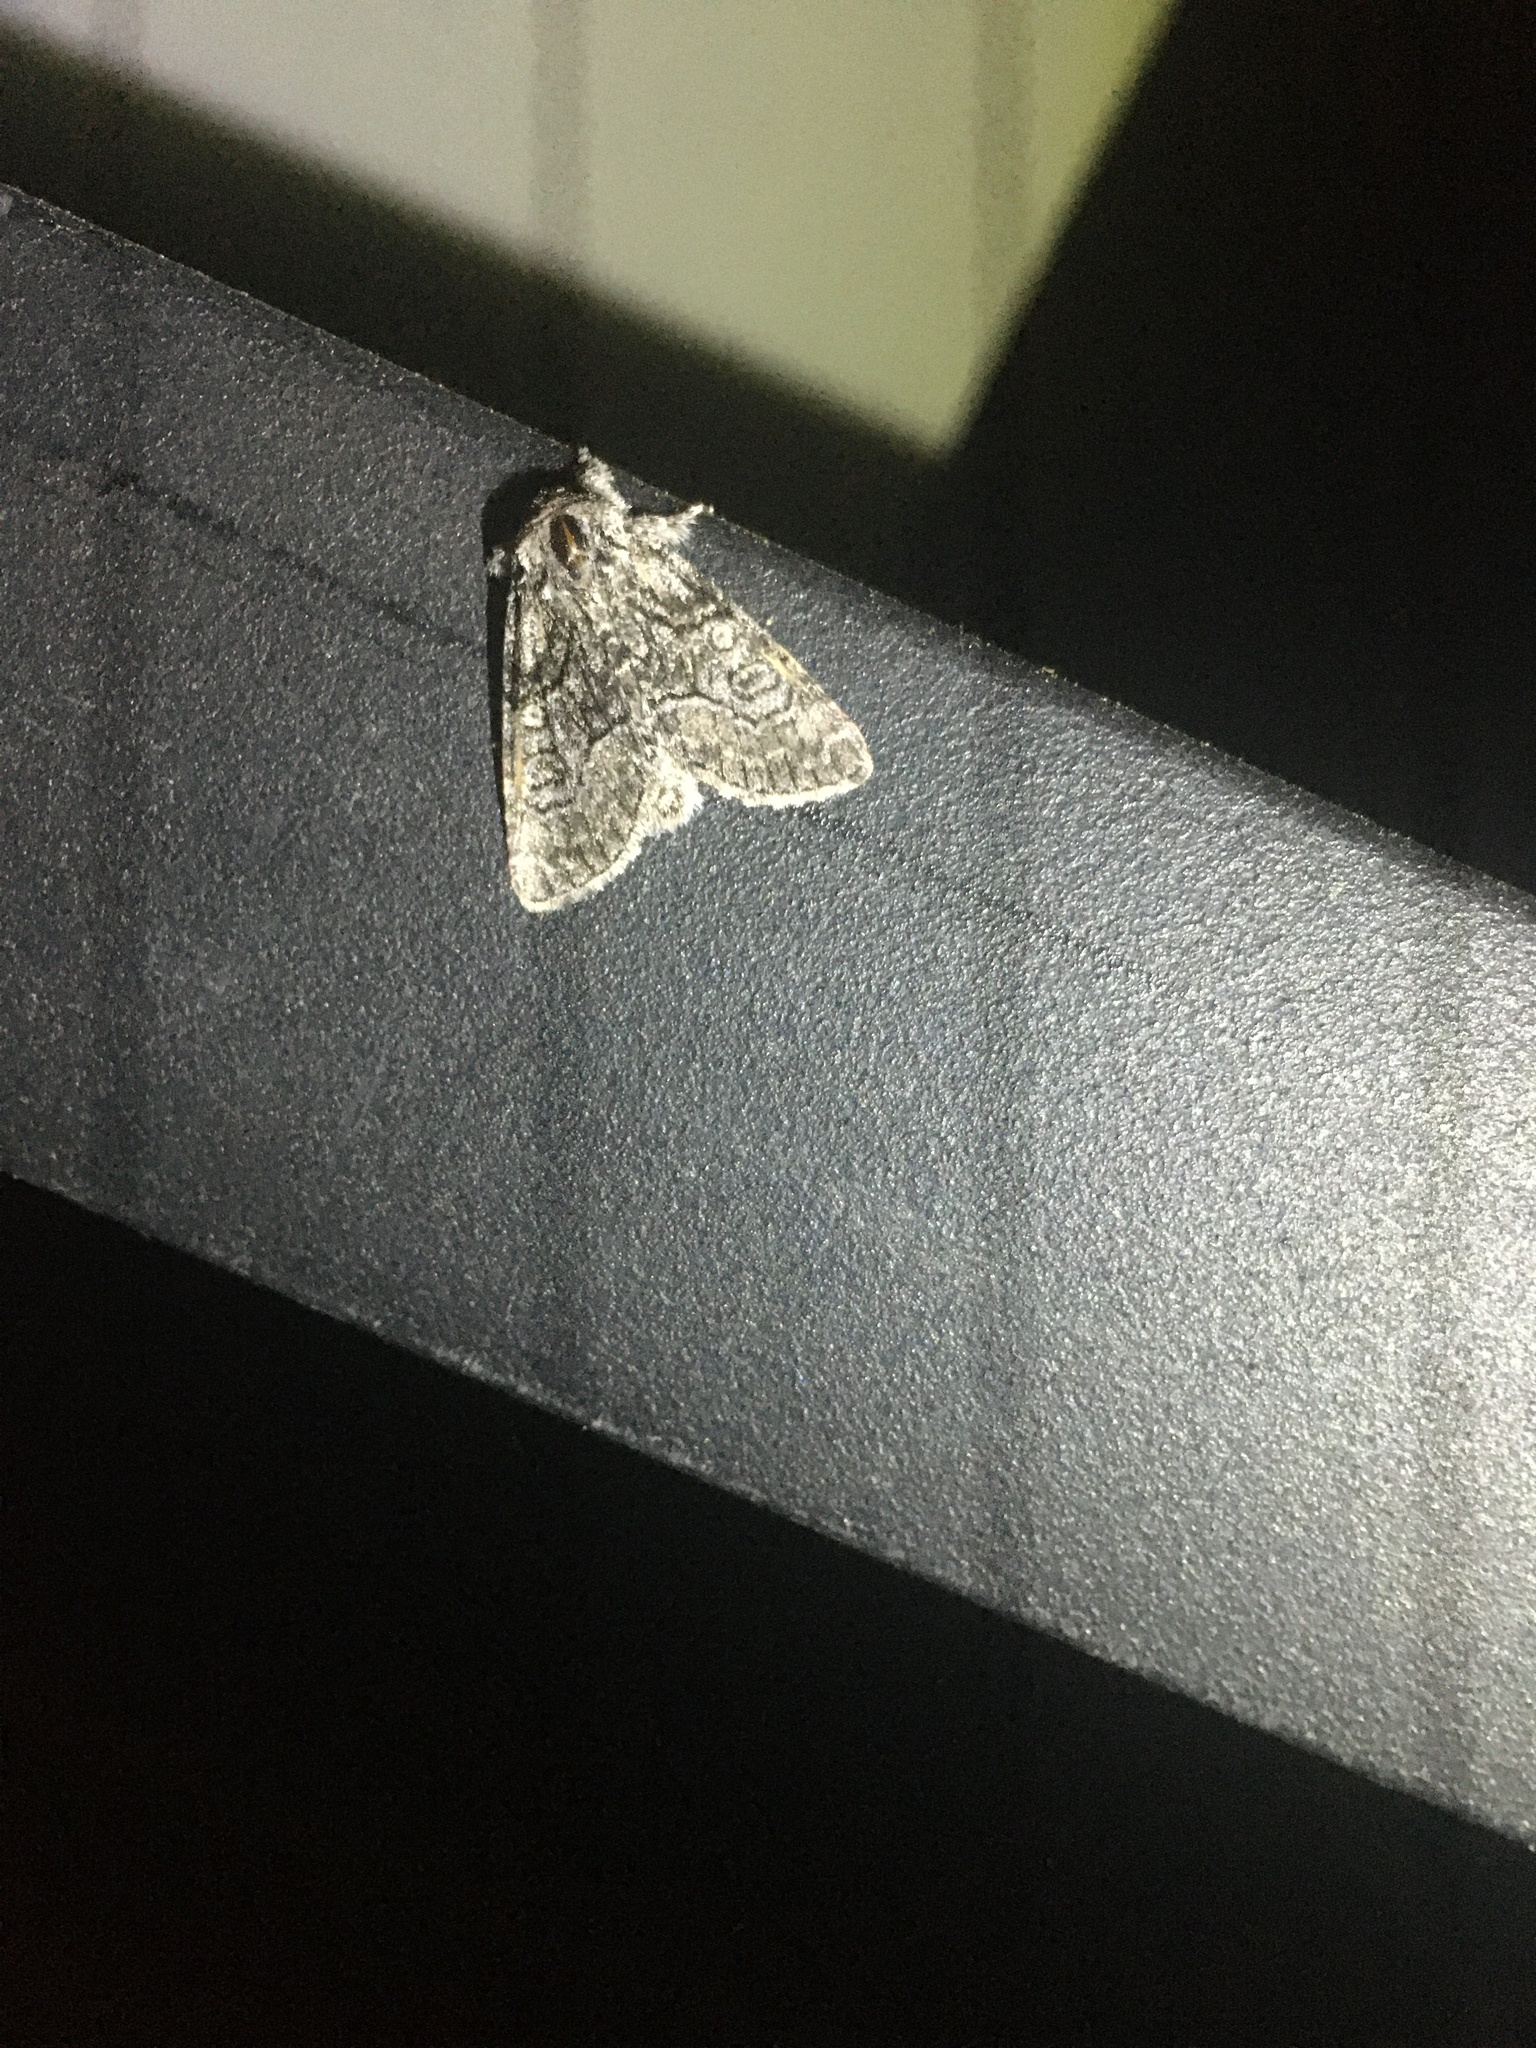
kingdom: Animalia
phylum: Arthropoda
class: Insecta
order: Lepidoptera
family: Noctuidae
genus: Raphia
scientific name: Raphia frater
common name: Brother
